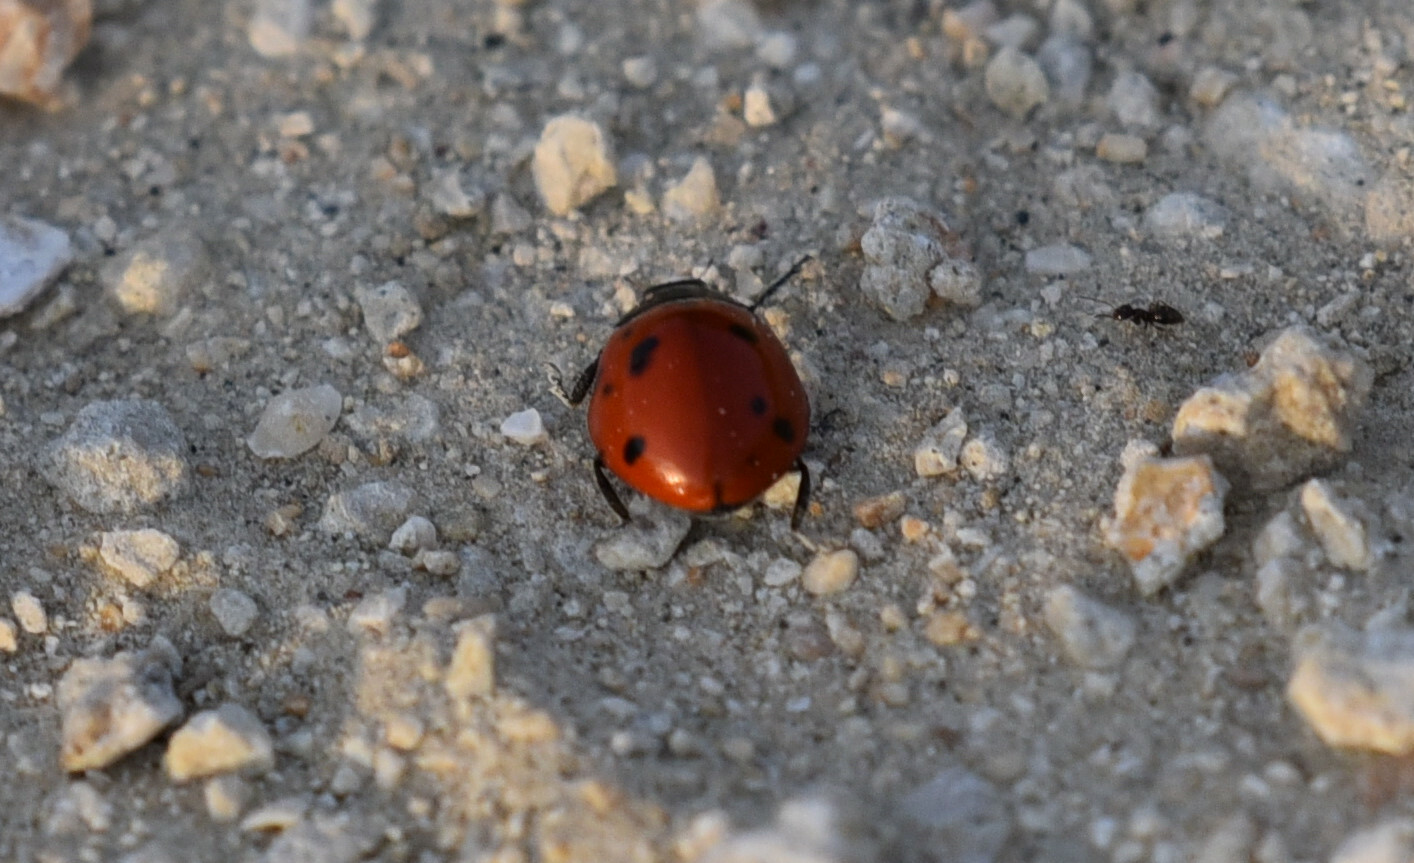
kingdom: Animalia
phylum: Arthropoda
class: Insecta
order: Coleoptera
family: Coccinellidae
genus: Coccinella
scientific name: Coccinella septempunctata
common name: Sevenspotted lady beetle
